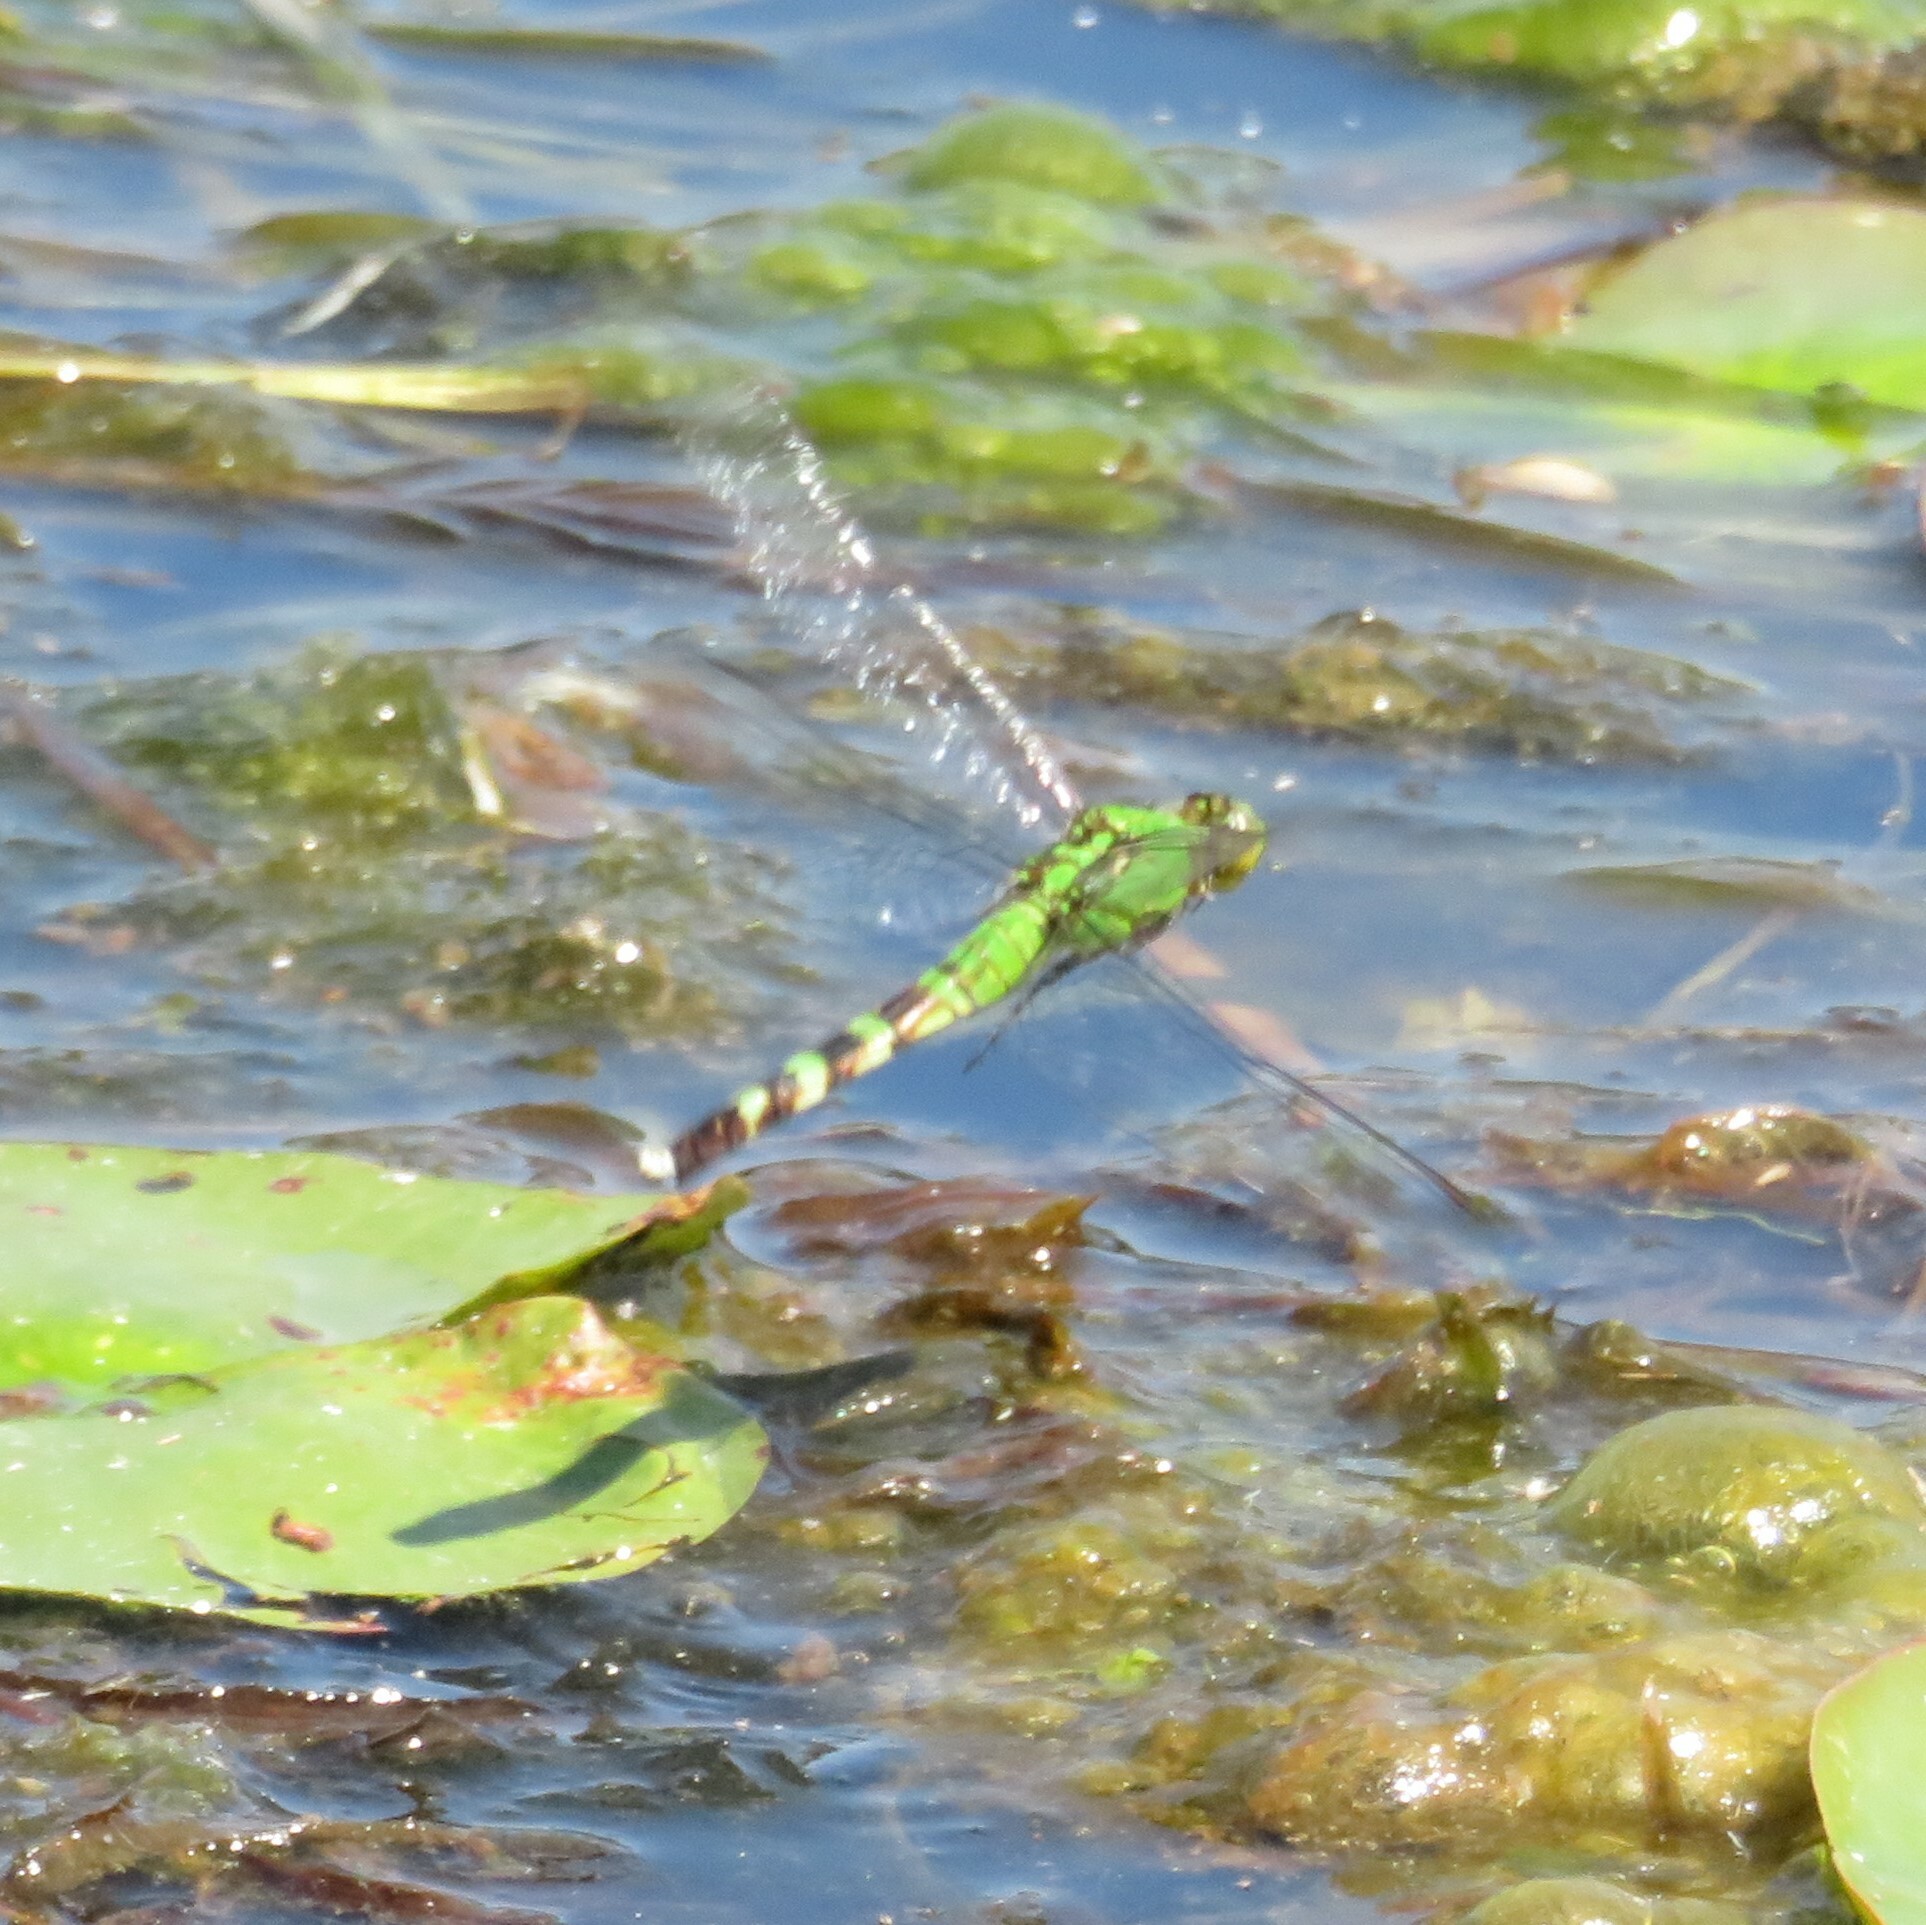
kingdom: Animalia
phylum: Arthropoda
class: Insecta
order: Odonata
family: Libellulidae
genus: Erythemis
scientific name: Erythemis simplicicollis
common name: Eastern pondhawk
